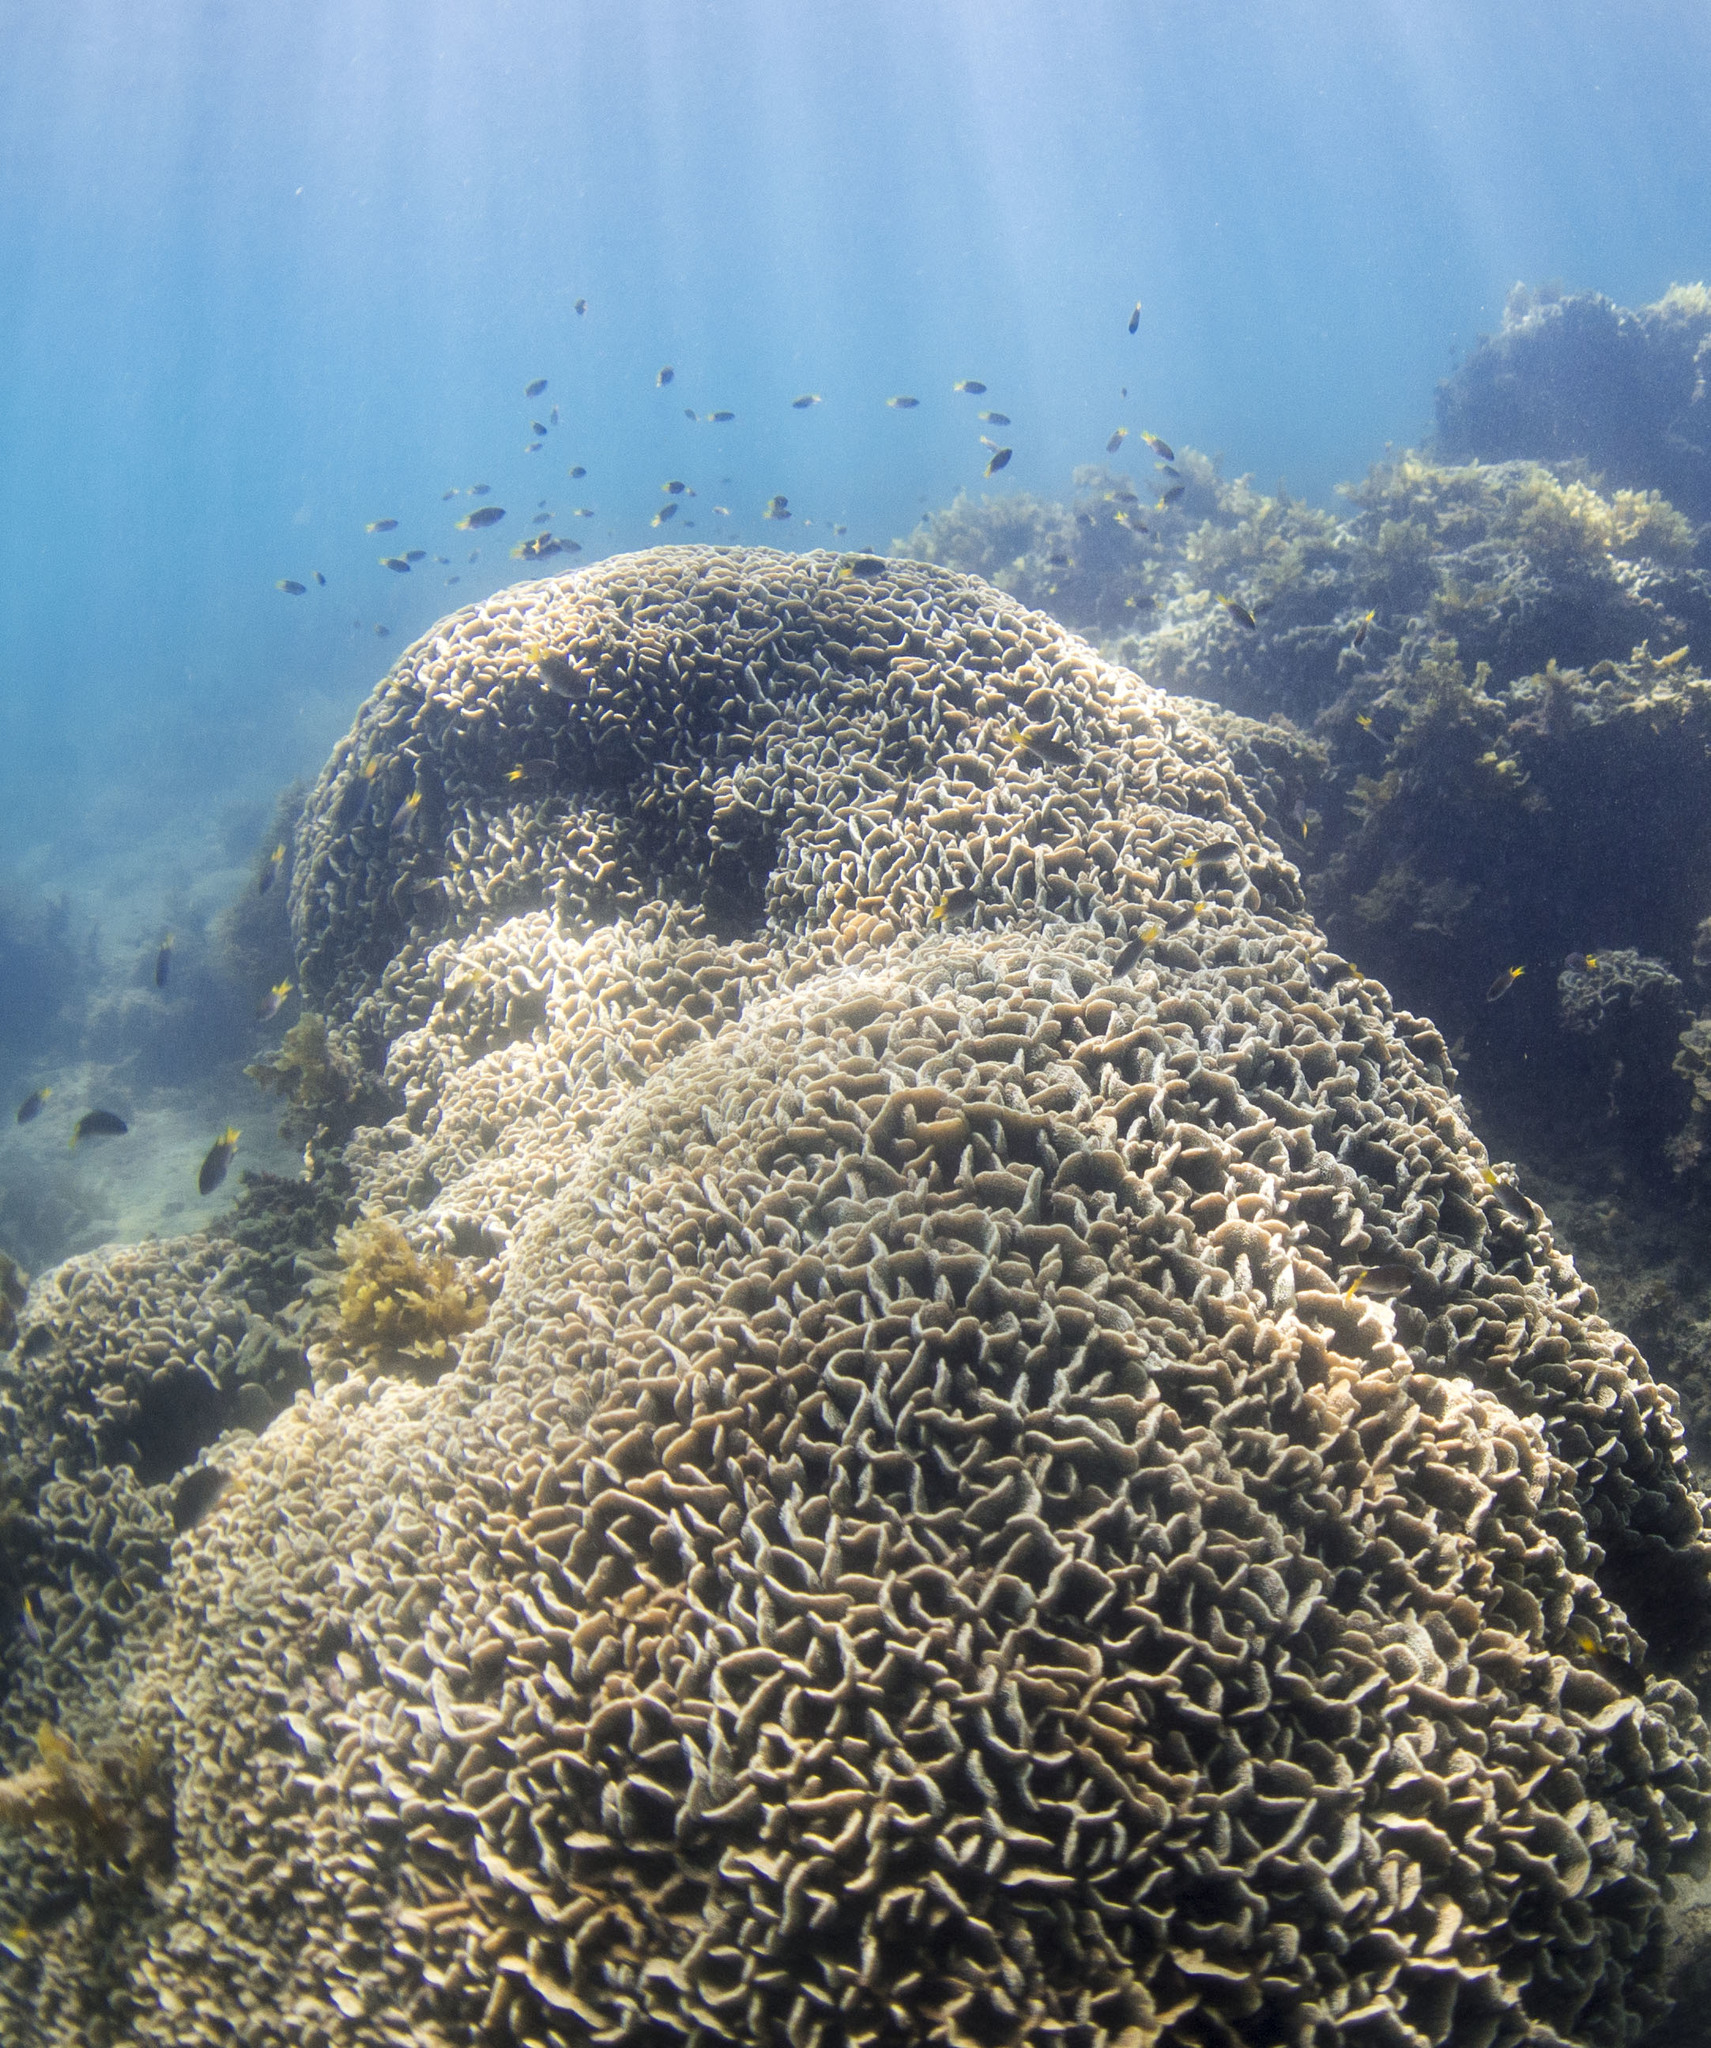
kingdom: Animalia
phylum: Cnidaria
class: Anthozoa
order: Scleractinia
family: Agariciidae
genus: Pavona
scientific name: Pavona decussata
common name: Leaf coral
